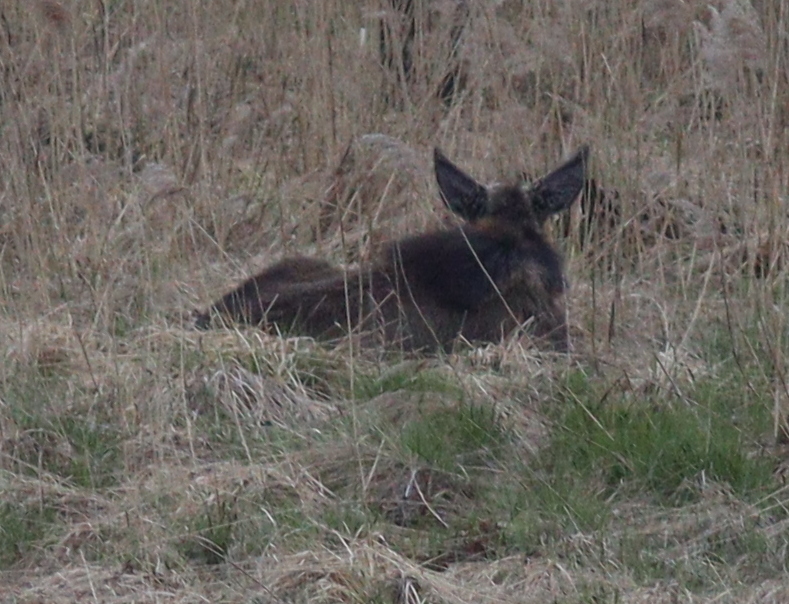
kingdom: Animalia
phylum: Chordata
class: Mammalia
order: Artiodactyla
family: Cervidae
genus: Alces
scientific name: Alces alces
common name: Moose
